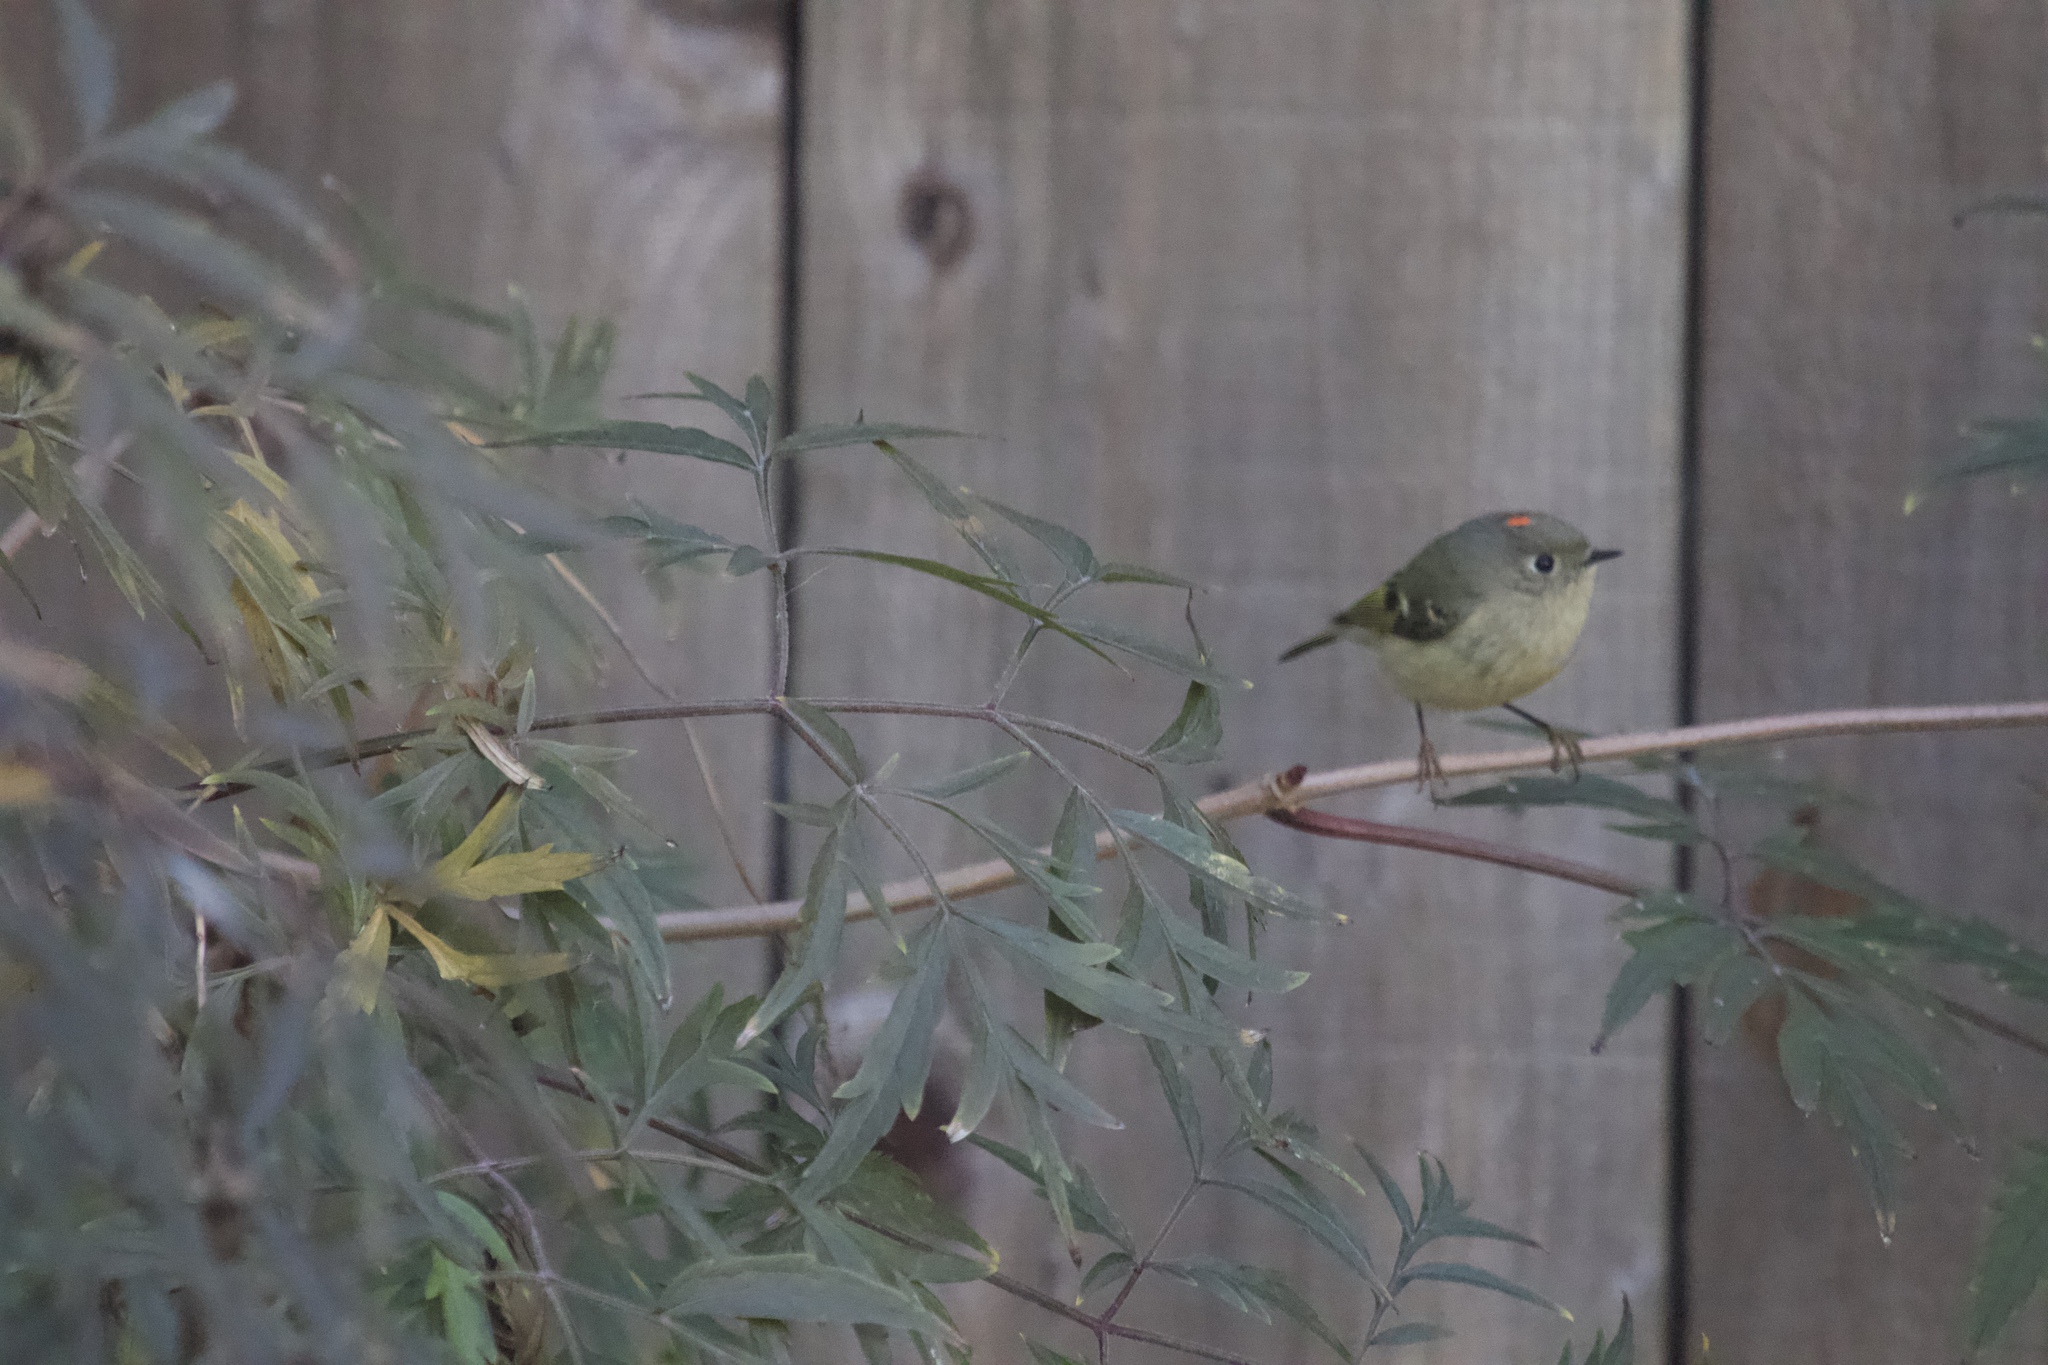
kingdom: Animalia
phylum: Chordata
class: Aves
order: Passeriformes
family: Regulidae
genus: Regulus
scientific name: Regulus calendula
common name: Ruby-crowned kinglet
